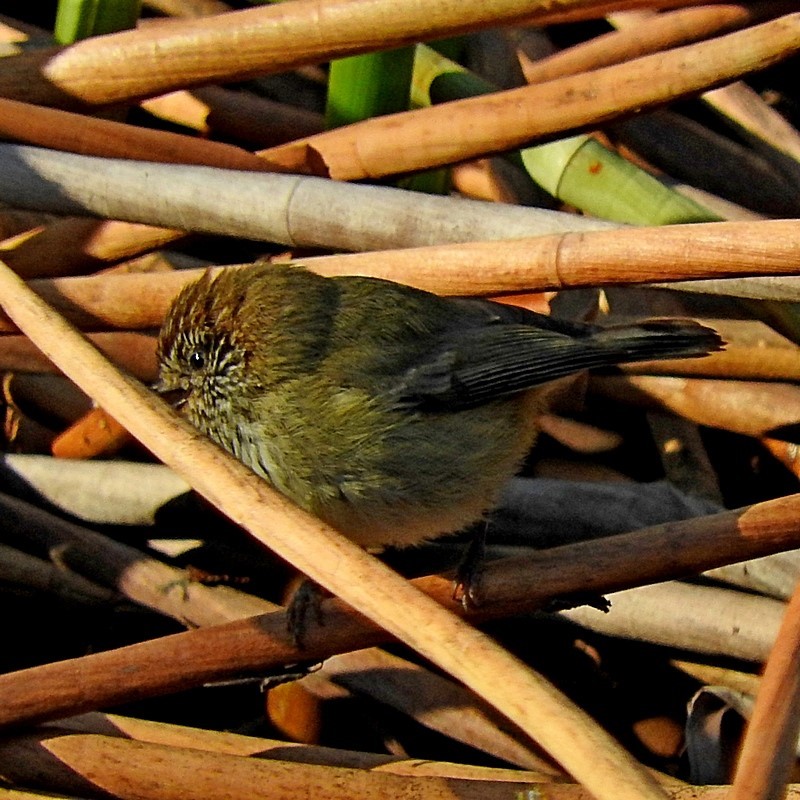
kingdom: Animalia
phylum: Chordata
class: Aves
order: Passeriformes
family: Acanthizidae
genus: Acanthiza
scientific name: Acanthiza lineata
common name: Striated thornbill
